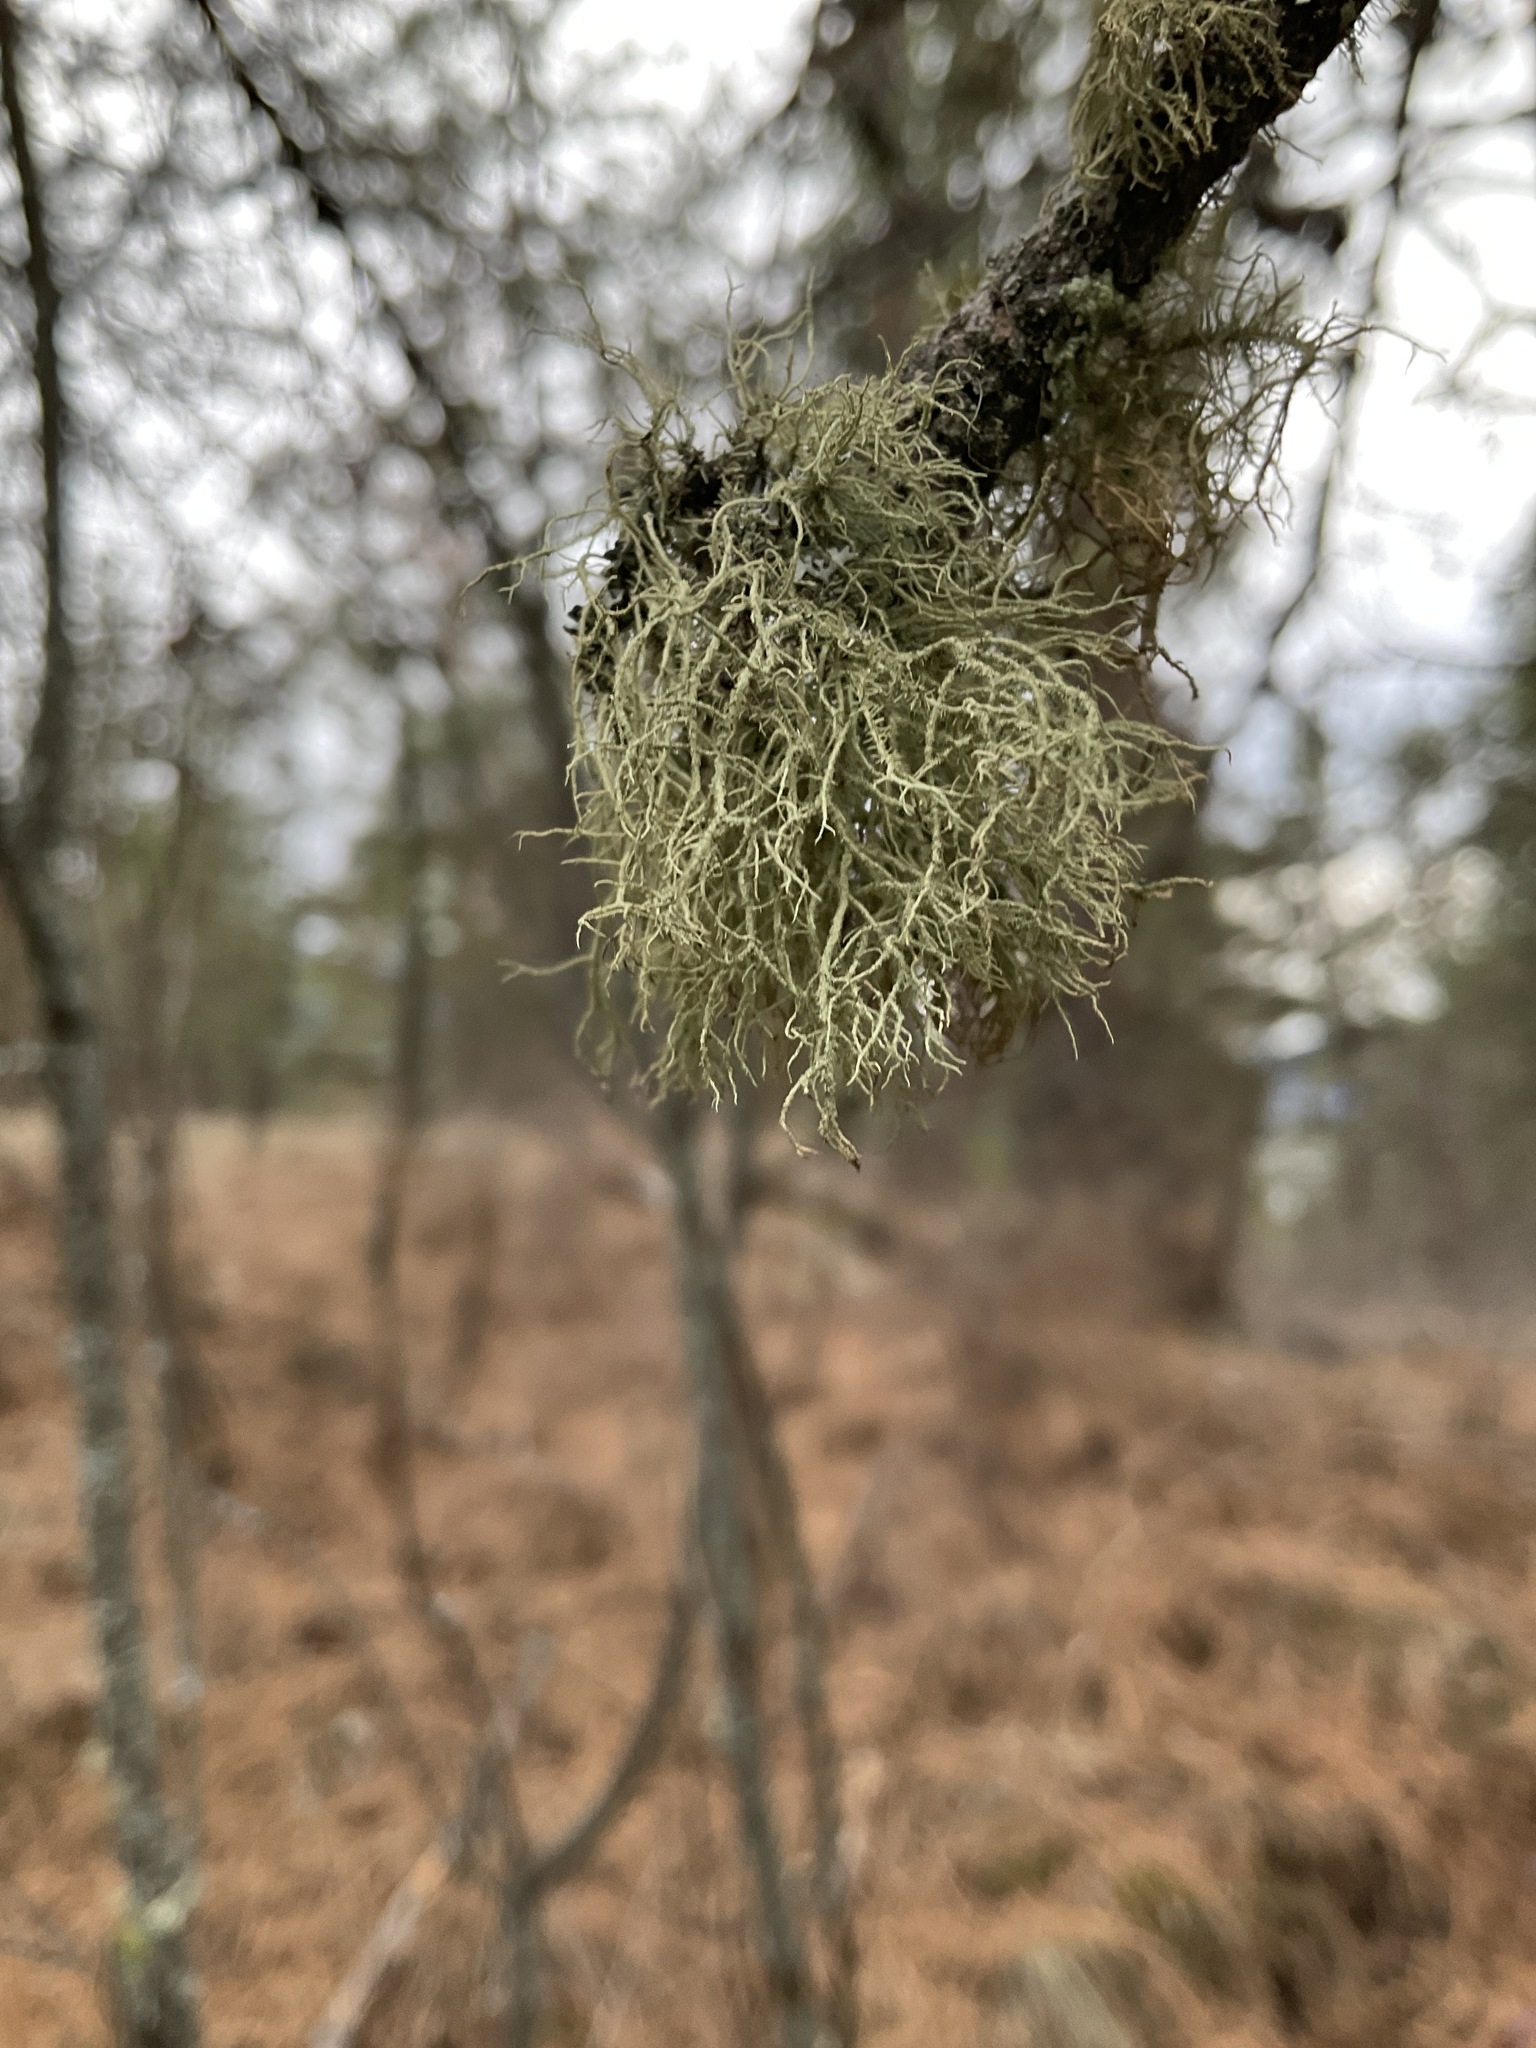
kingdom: Fungi
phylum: Ascomycota
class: Lecanoromycetes
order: Lecanorales
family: Parmeliaceae
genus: Usnea
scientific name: Usnea hirta
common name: Bristly beard lichen
